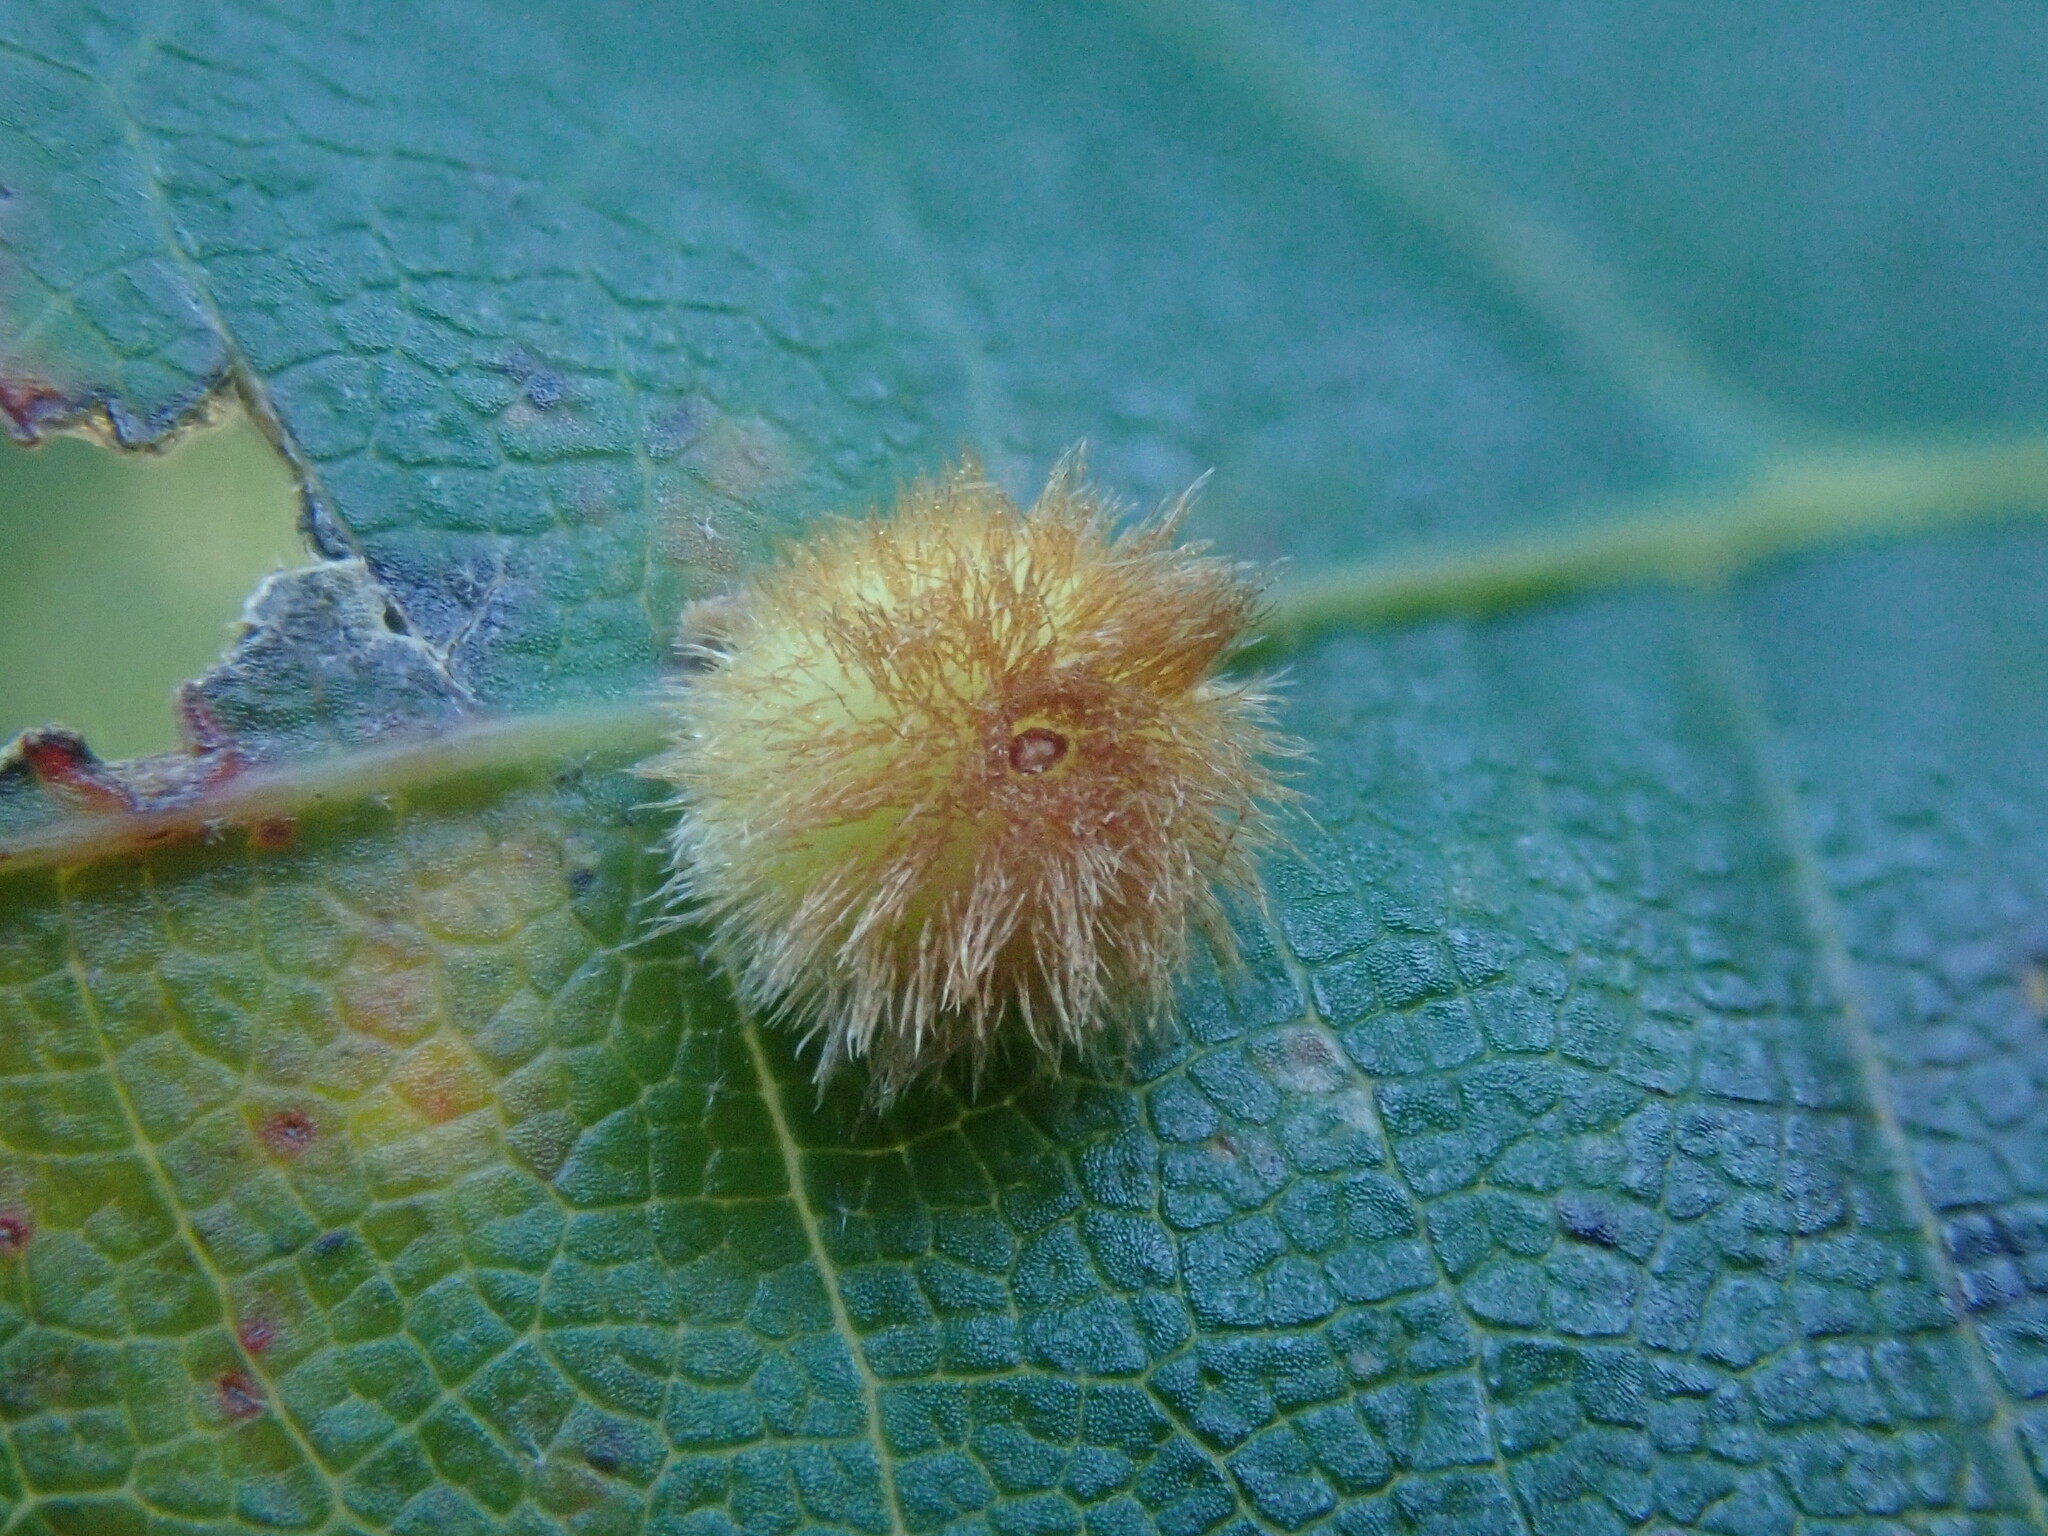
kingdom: Animalia
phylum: Arthropoda
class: Insecta
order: Hymenoptera
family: Cynipidae
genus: Callirhytis
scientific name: Callirhytis
